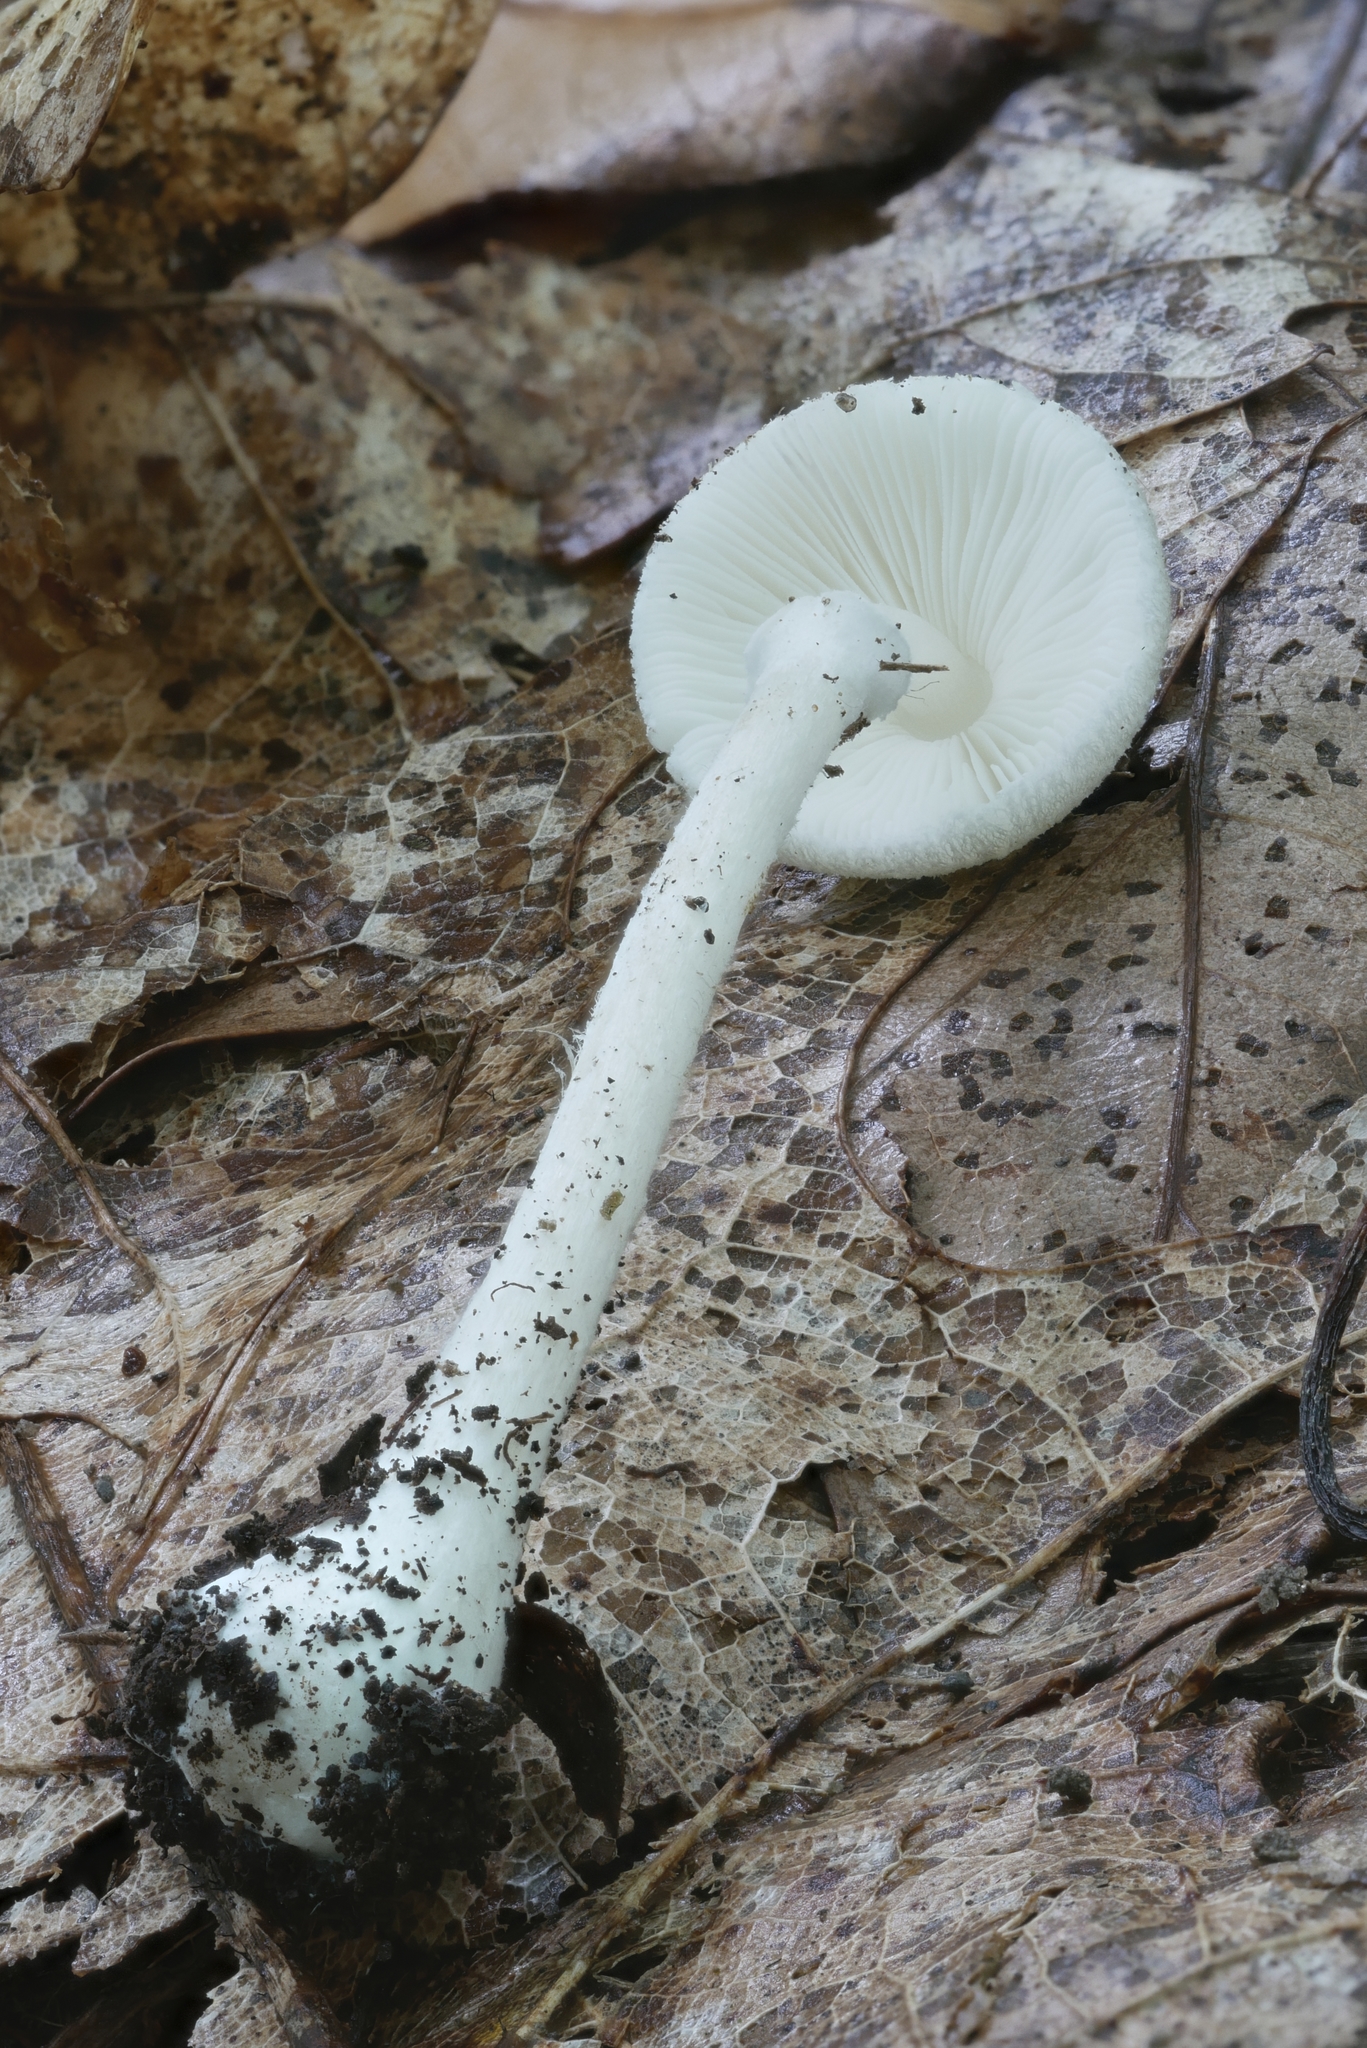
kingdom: Fungi
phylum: Basidiomycota
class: Agaricomycetes
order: Agaricales
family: Agaricaceae
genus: Leucoagaricus
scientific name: Leucoagaricus serenus
